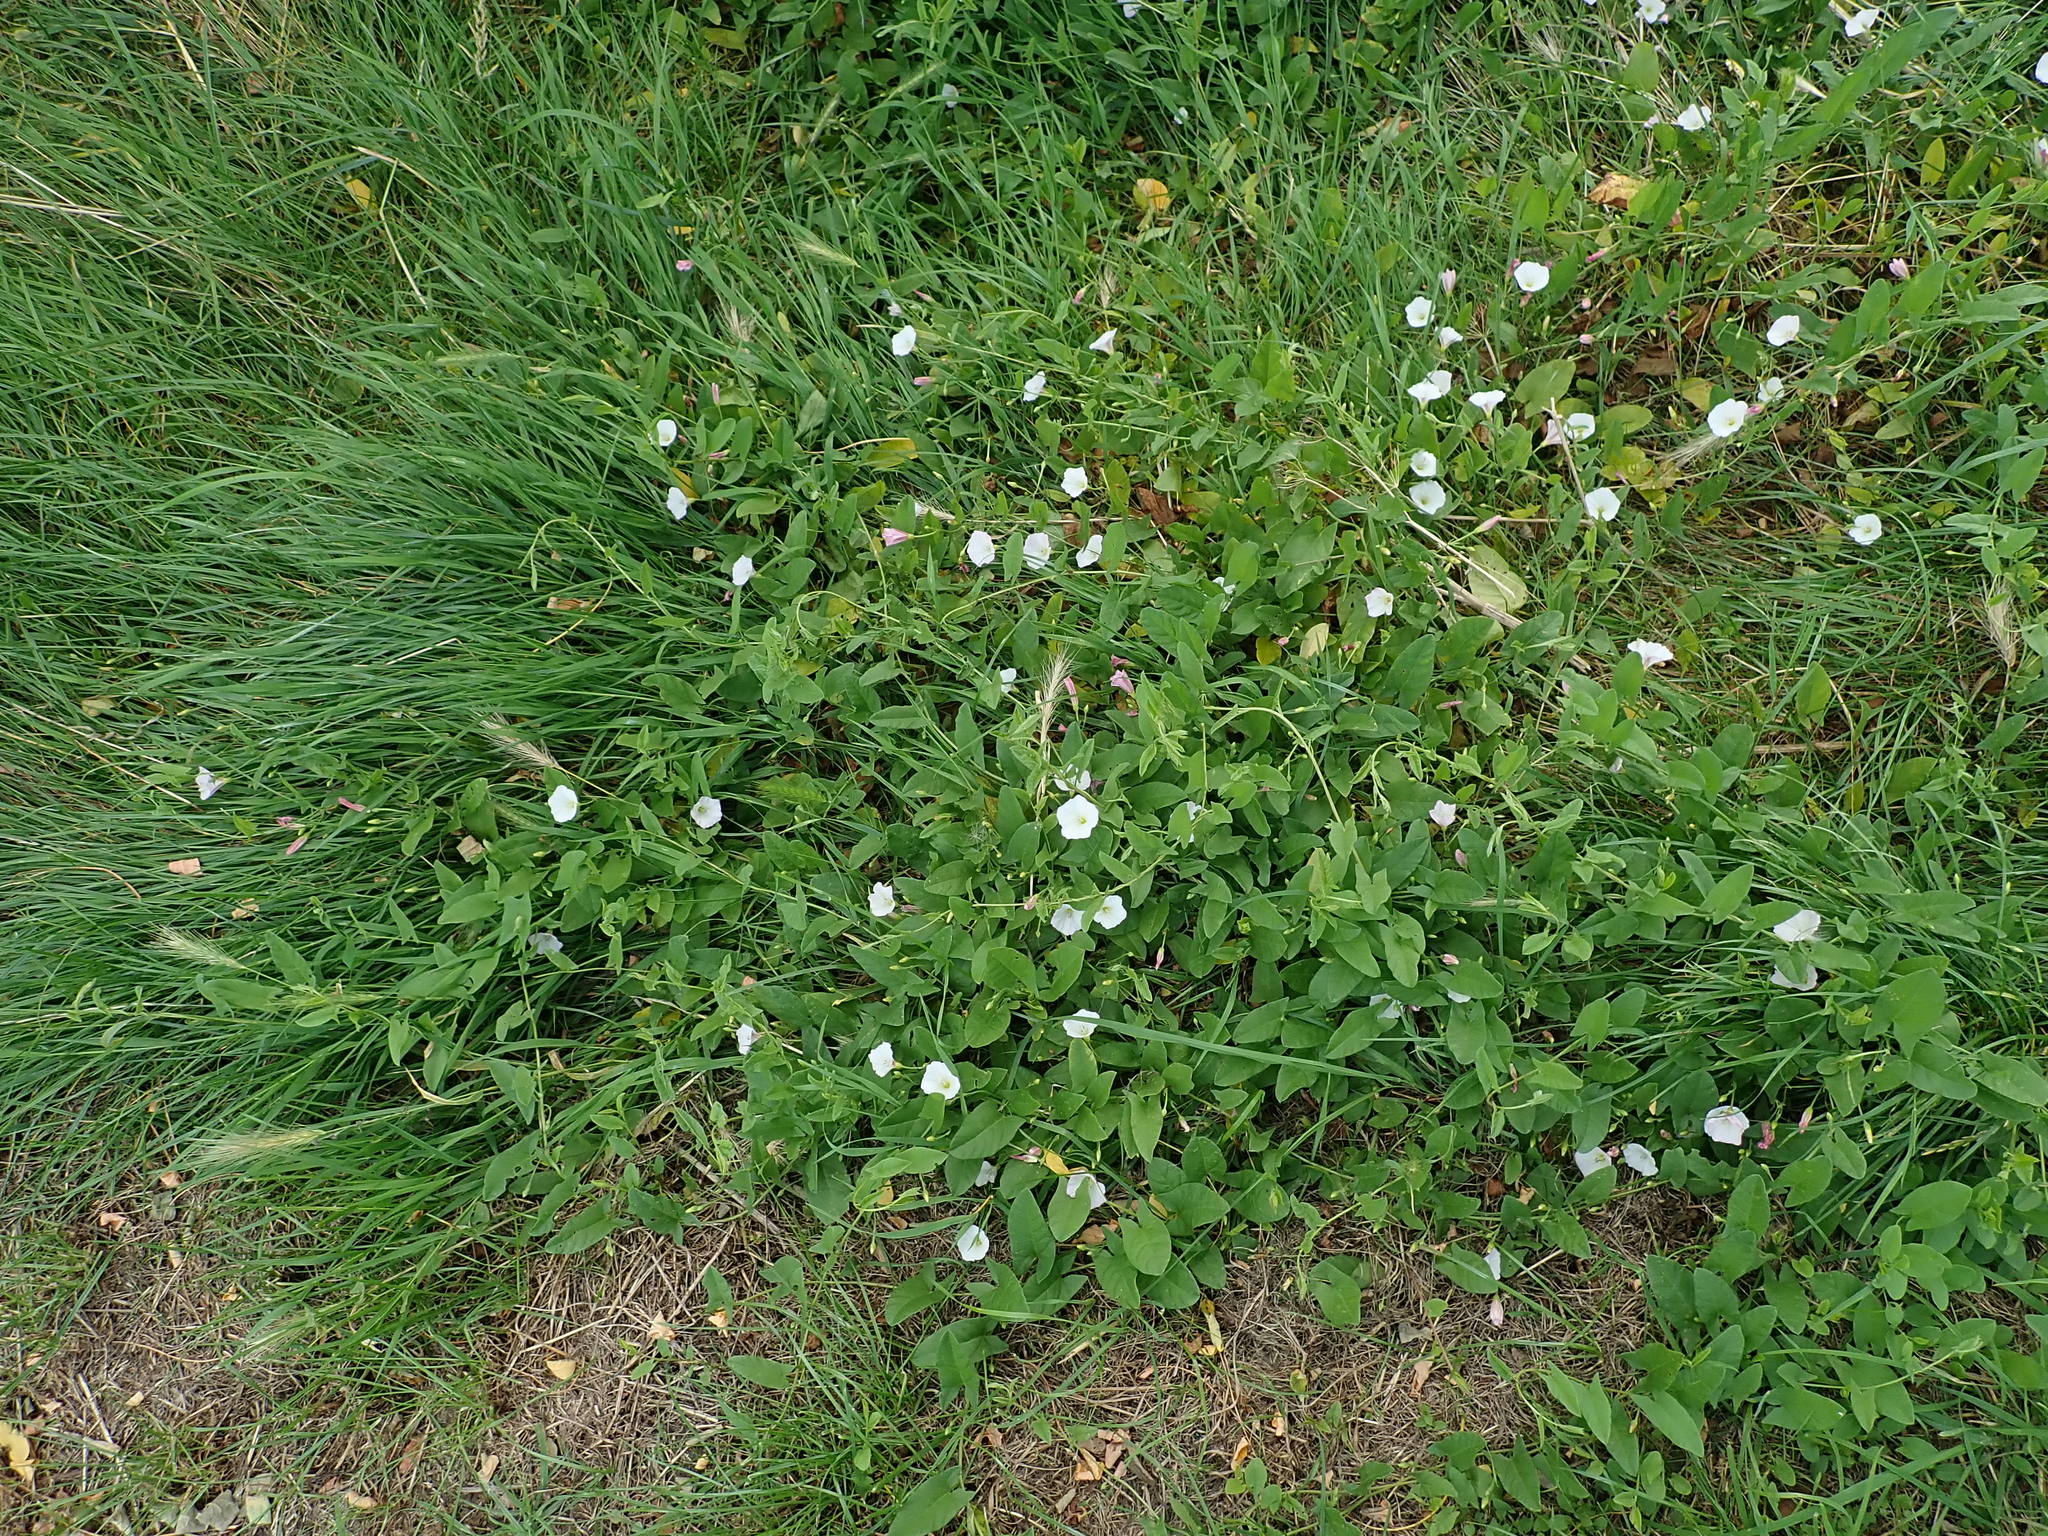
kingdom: Plantae
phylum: Tracheophyta
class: Magnoliopsida
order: Solanales
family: Convolvulaceae
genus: Convolvulus
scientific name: Convolvulus arvensis
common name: Field bindweed
